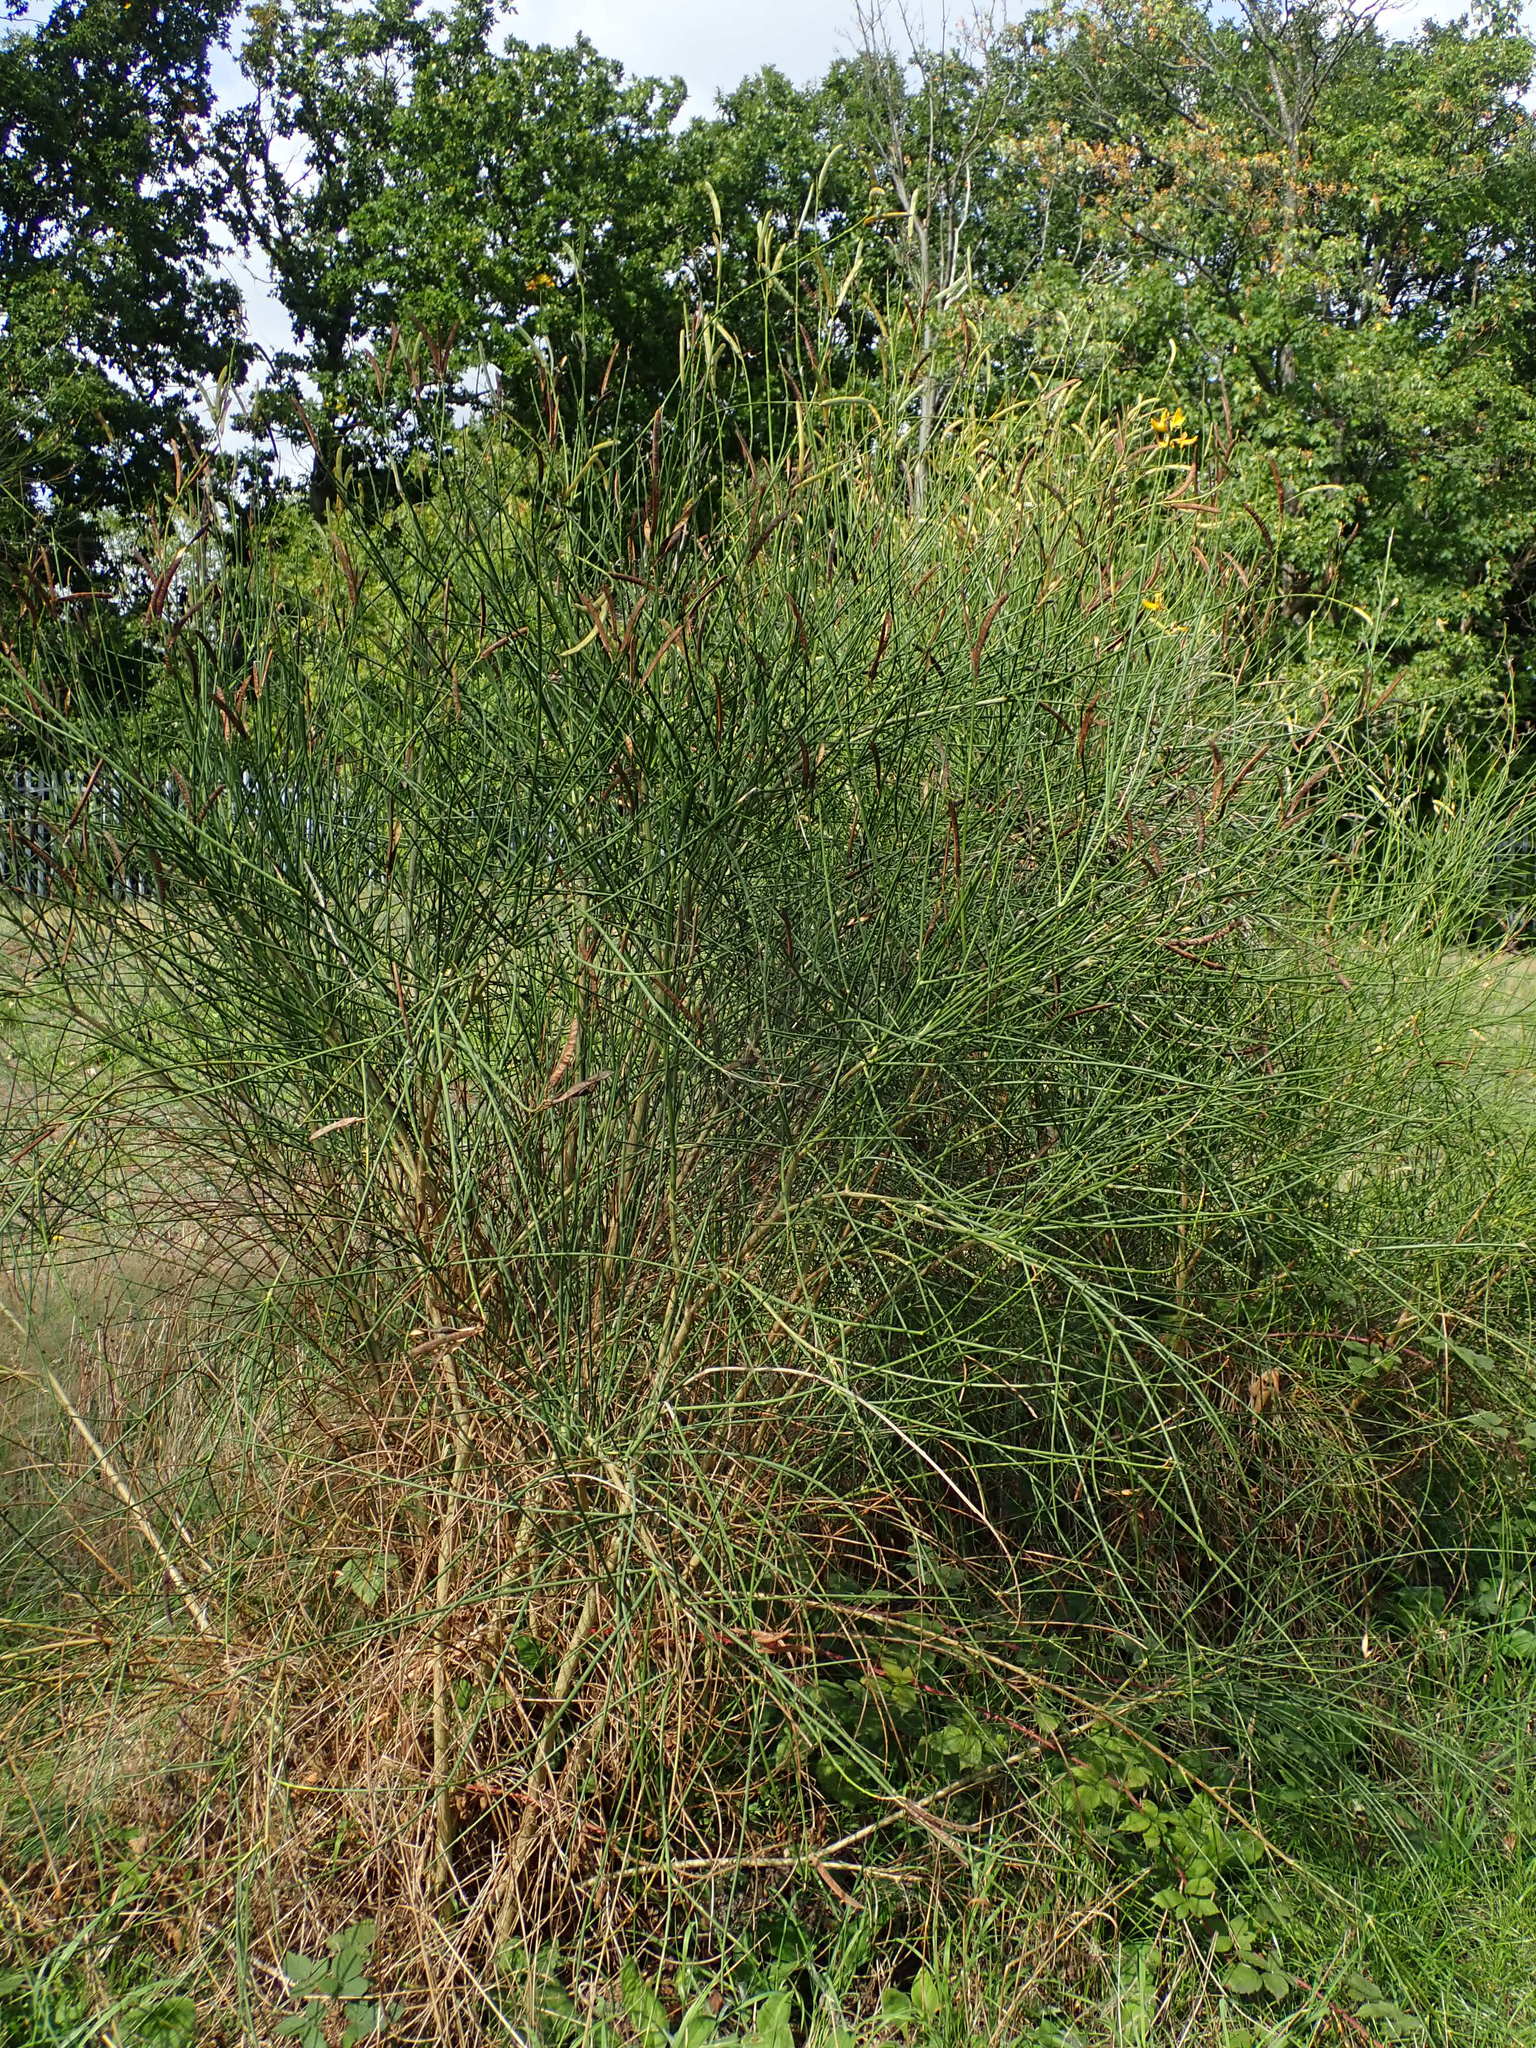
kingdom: Plantae
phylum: Tracheophyta
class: Magnoliopsida
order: Fabales
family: Fabaceae
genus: Spartium
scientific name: Spartium junceum
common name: Spanish broom
